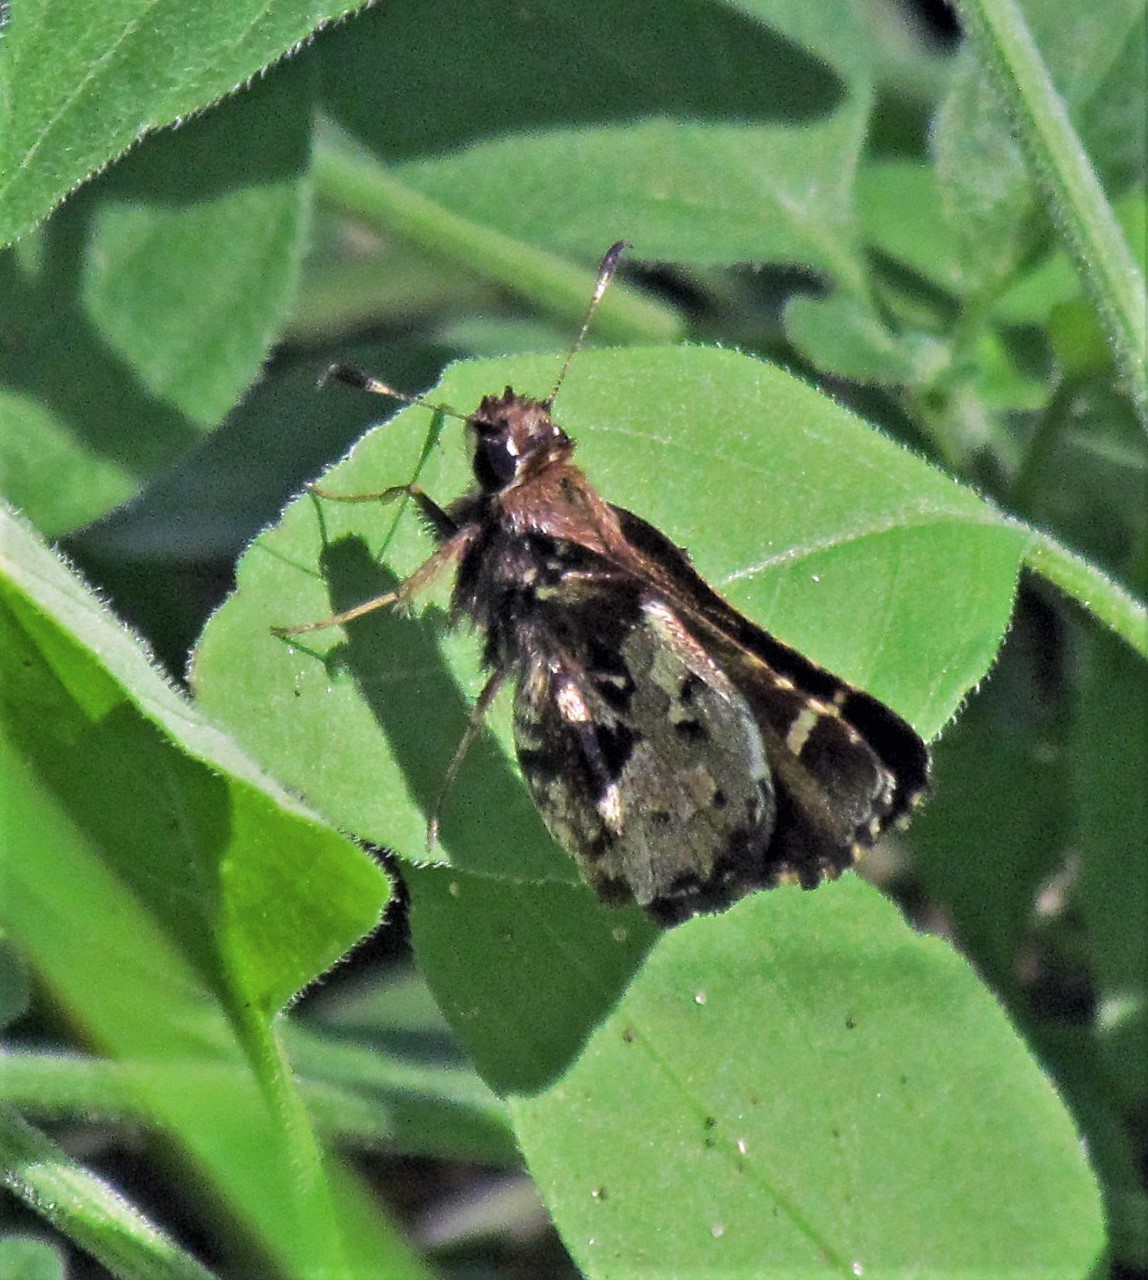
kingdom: Animalia
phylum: Arthropoda
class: Insecta
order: Lepidoptera
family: Hesperiidae
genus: Thespieus
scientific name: Thespieus jora
